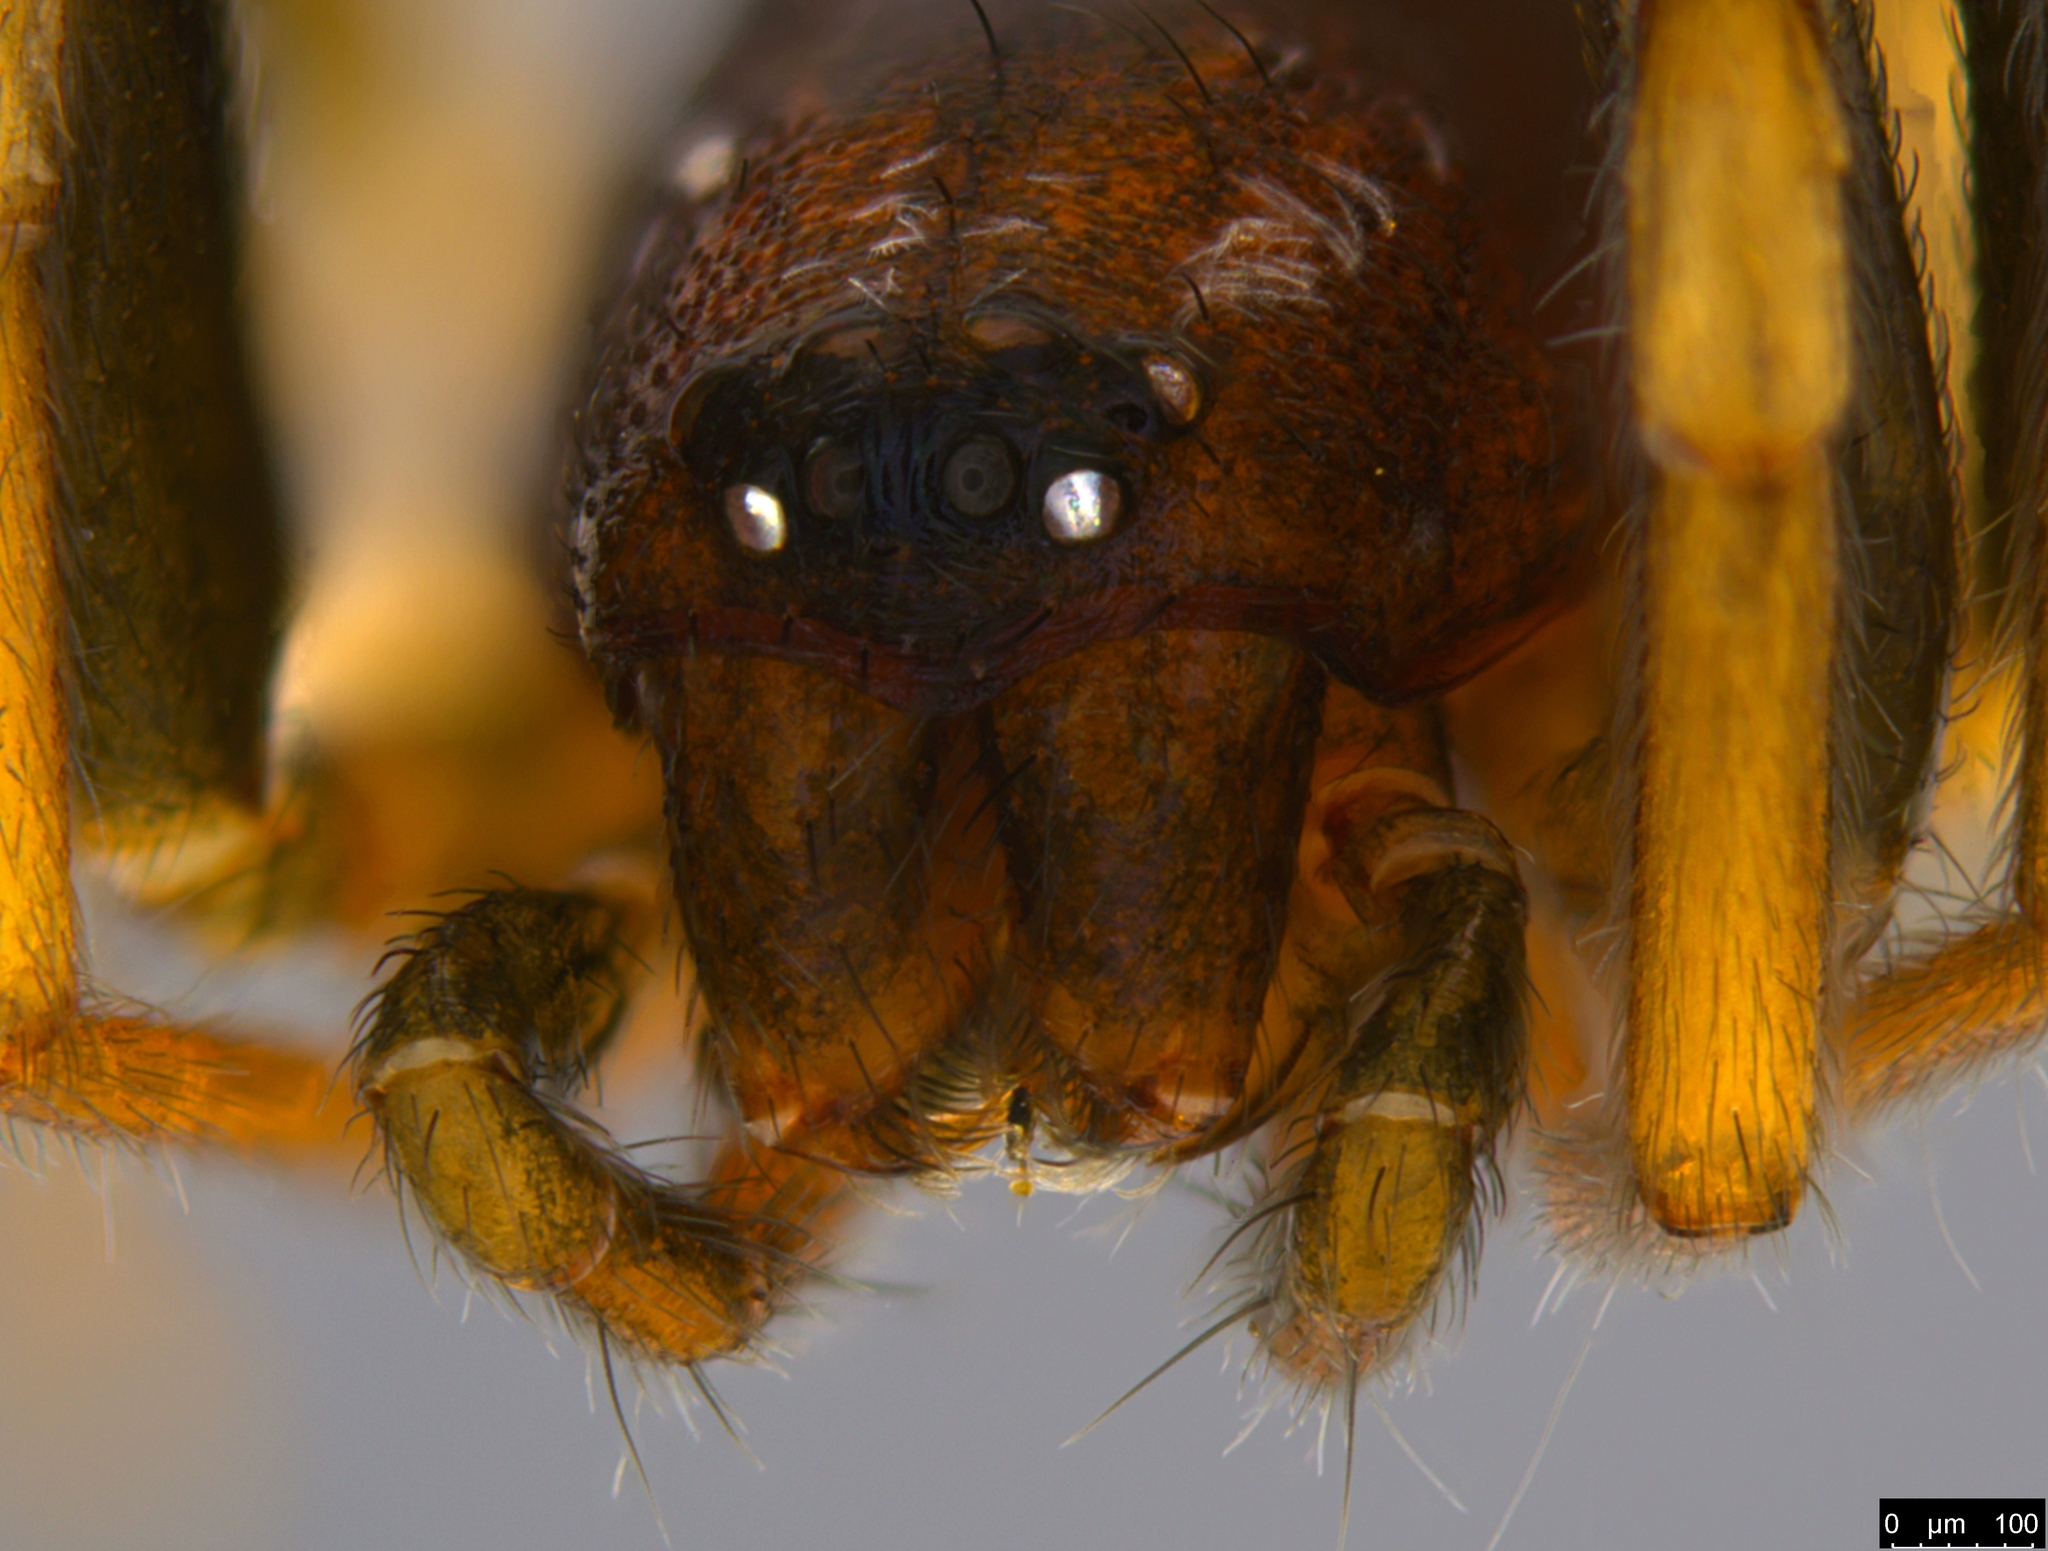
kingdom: Animalia
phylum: Arthropoda
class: Arachnida
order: Araneae
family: Lamponidae
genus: Queenvic
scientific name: Queenvic piccadilly
